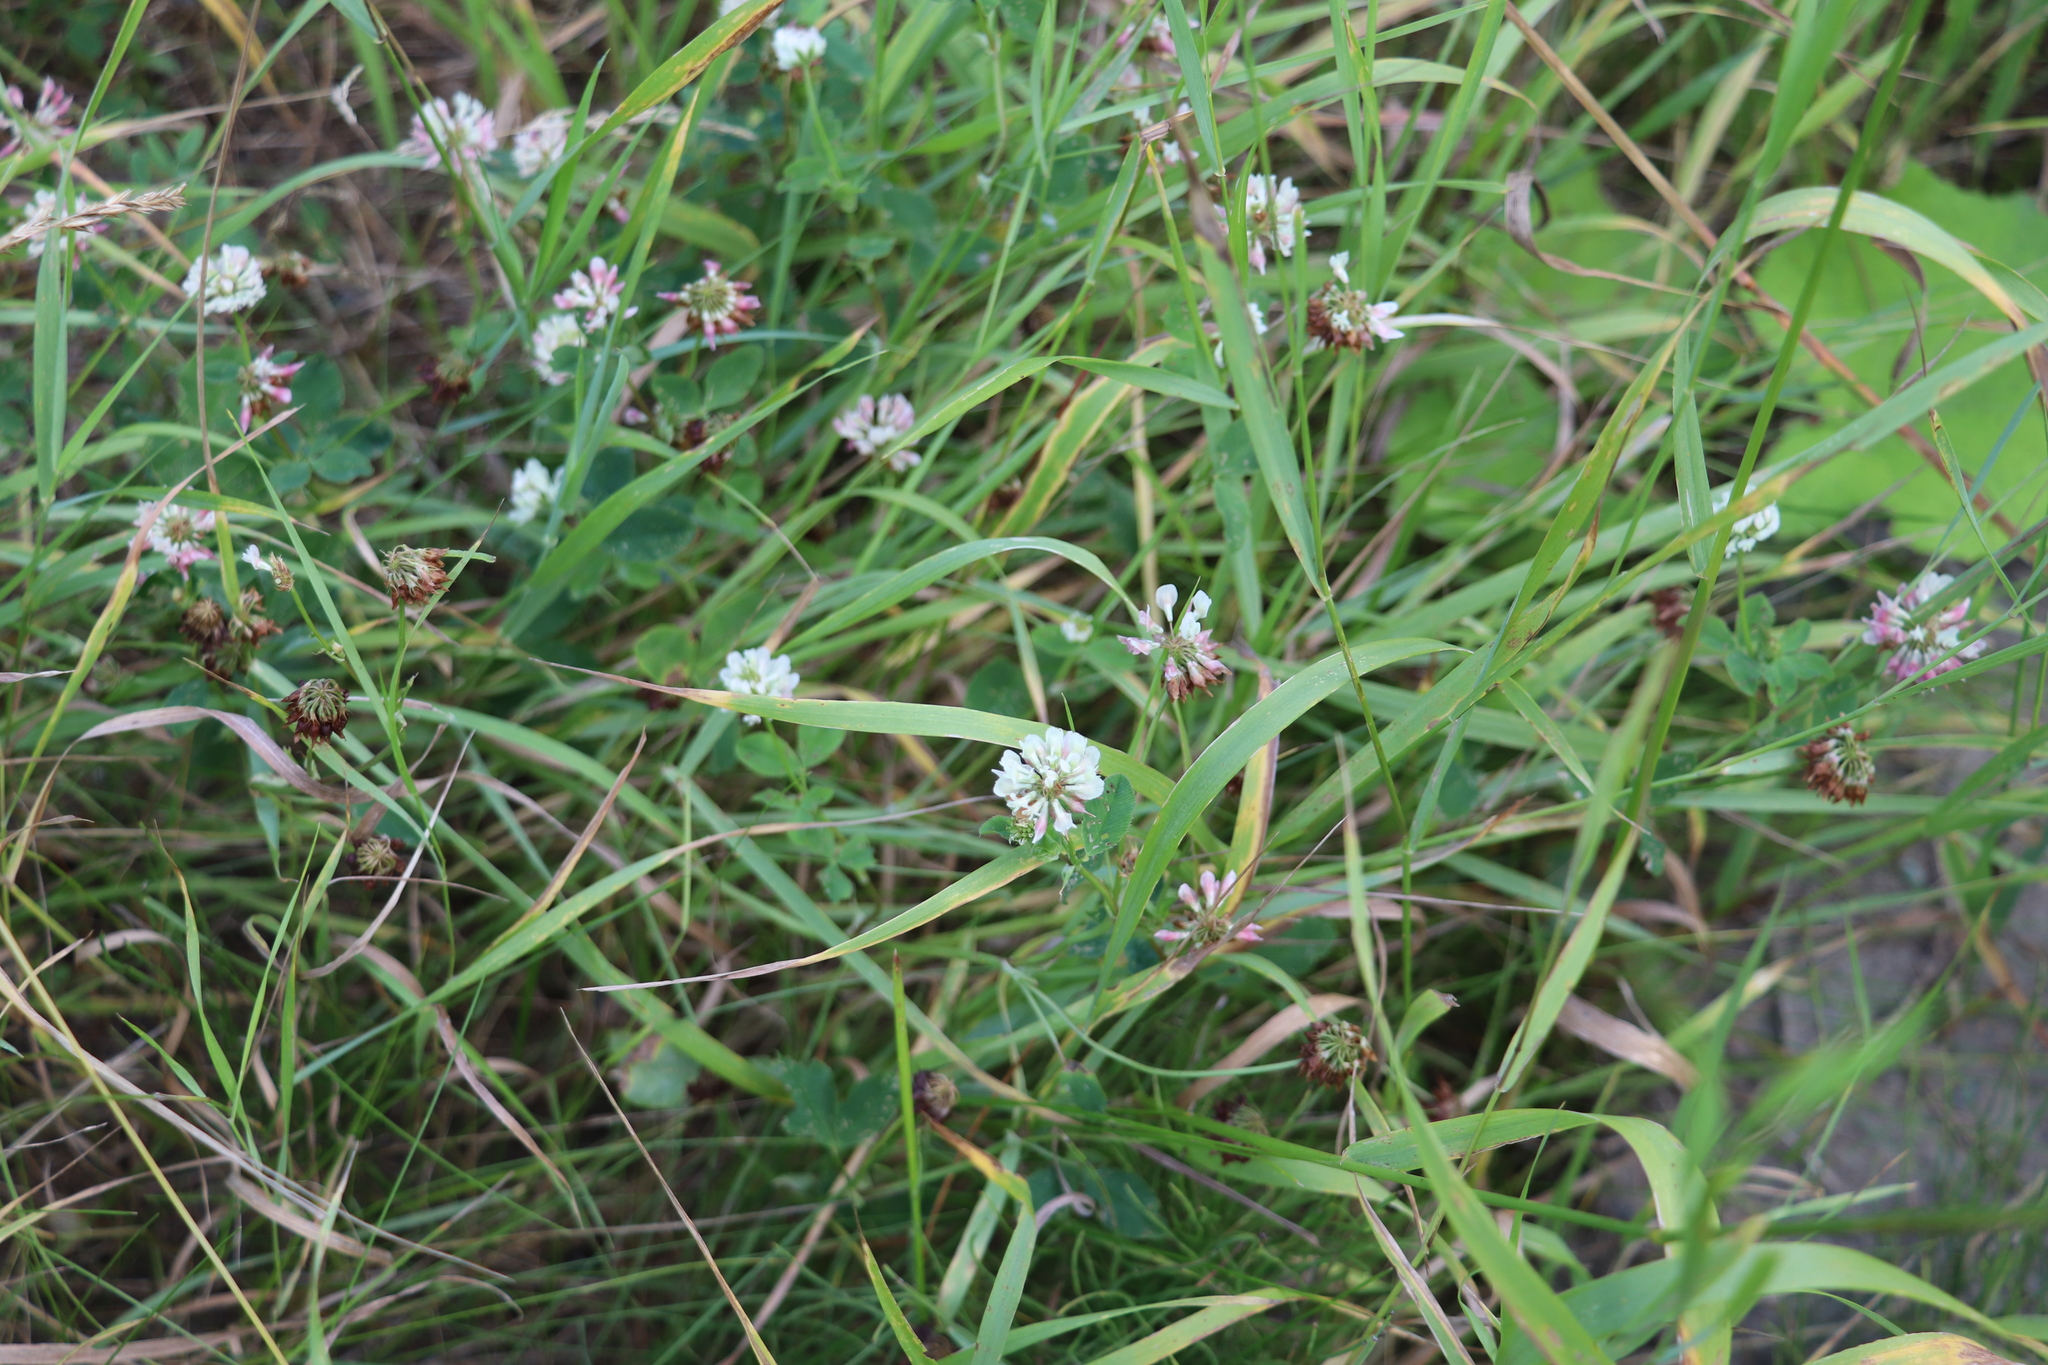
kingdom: Plantae
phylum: Tracheophyta
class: Magnoliopsida
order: Fabales
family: Fabaceae
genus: Trifolium
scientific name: Trifolium hybridum
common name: Alsike clover
